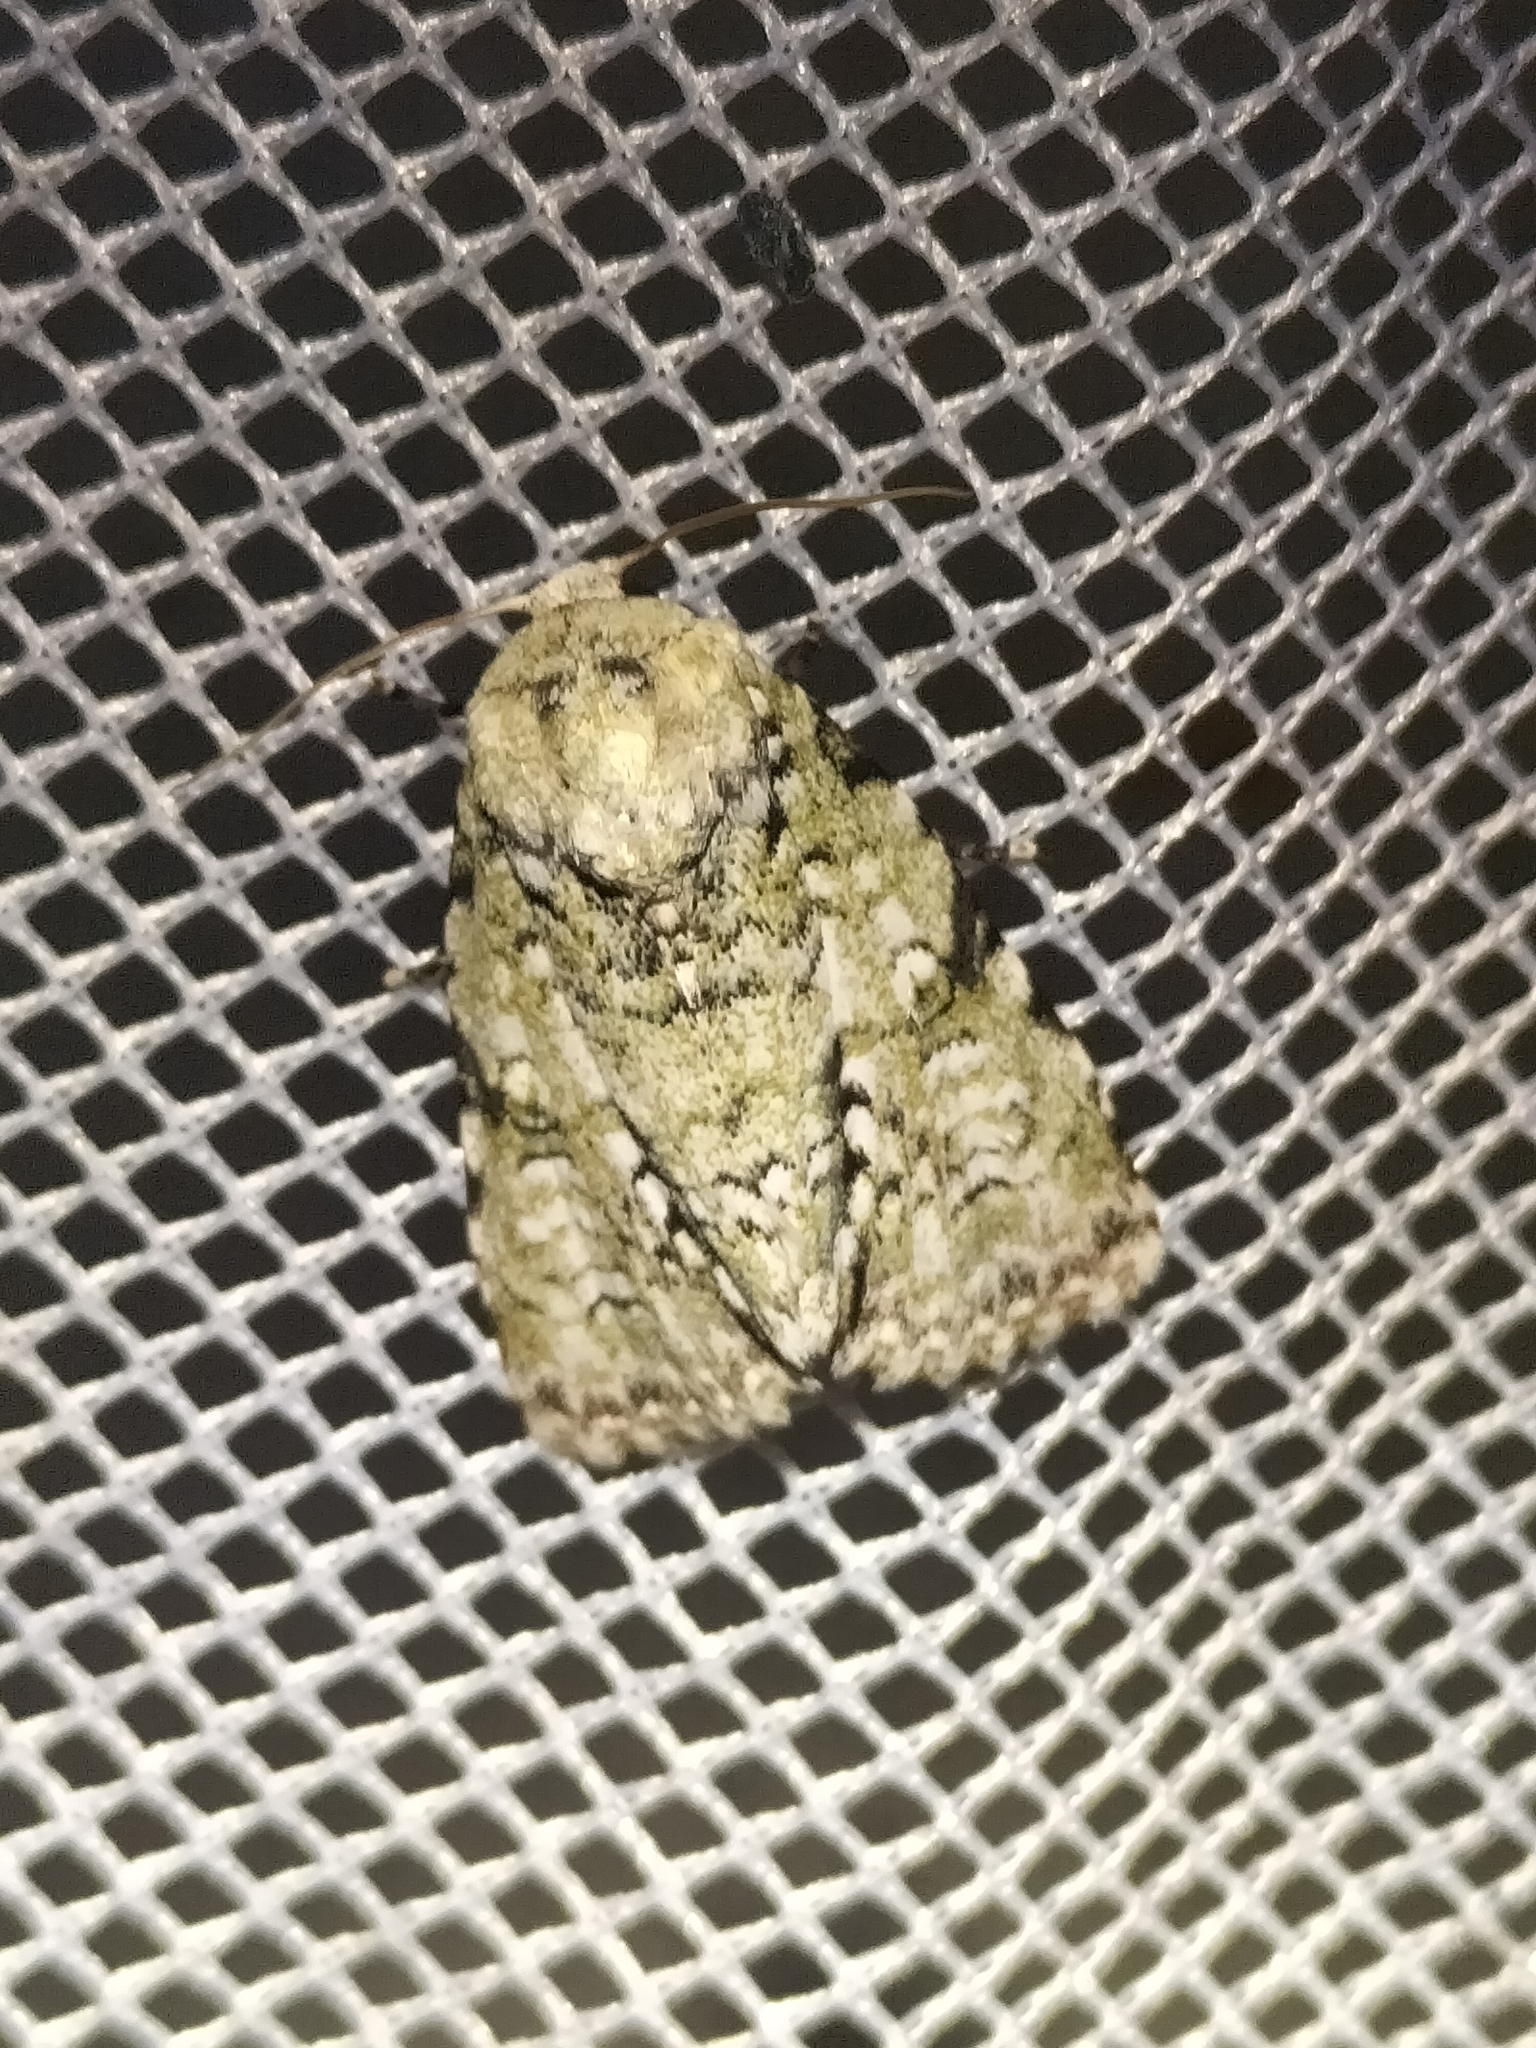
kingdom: Animalia
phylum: Arthropoda
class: Insecta
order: Lepidoptera
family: Noctuidae
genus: Acronicta
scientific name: Acronicta psorallina
